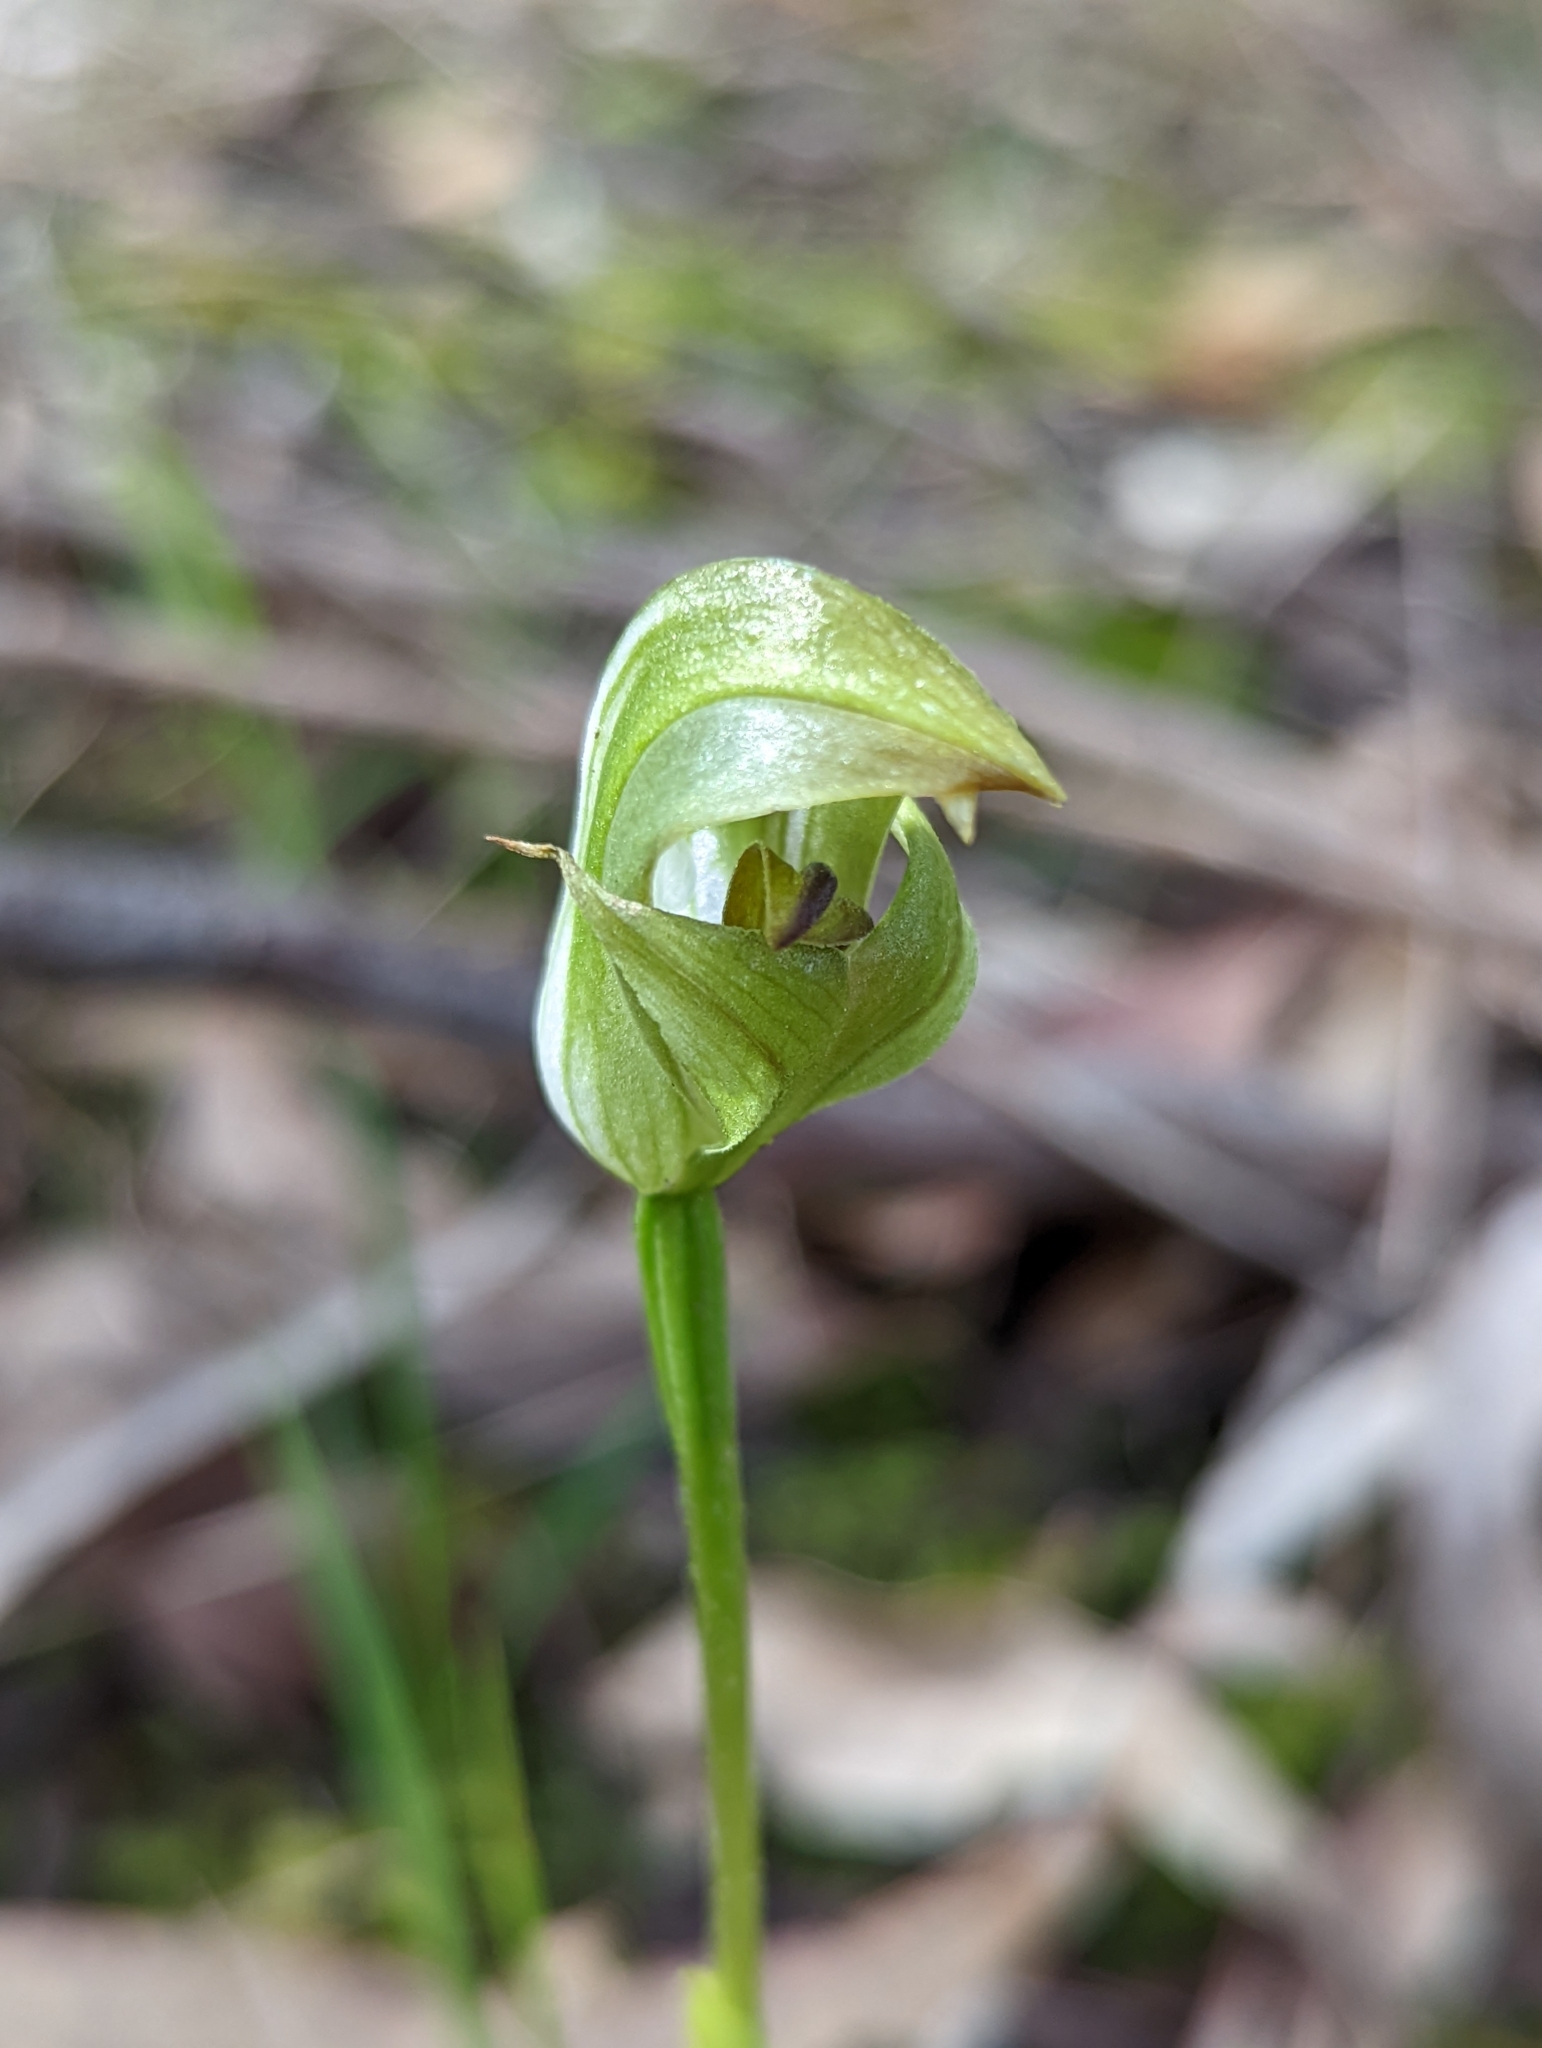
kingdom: Plantae
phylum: Tracheophyta
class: Liliopsida
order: Asparagales
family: Orchidaceae
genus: Pterostylis
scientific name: Pterostylis curta
